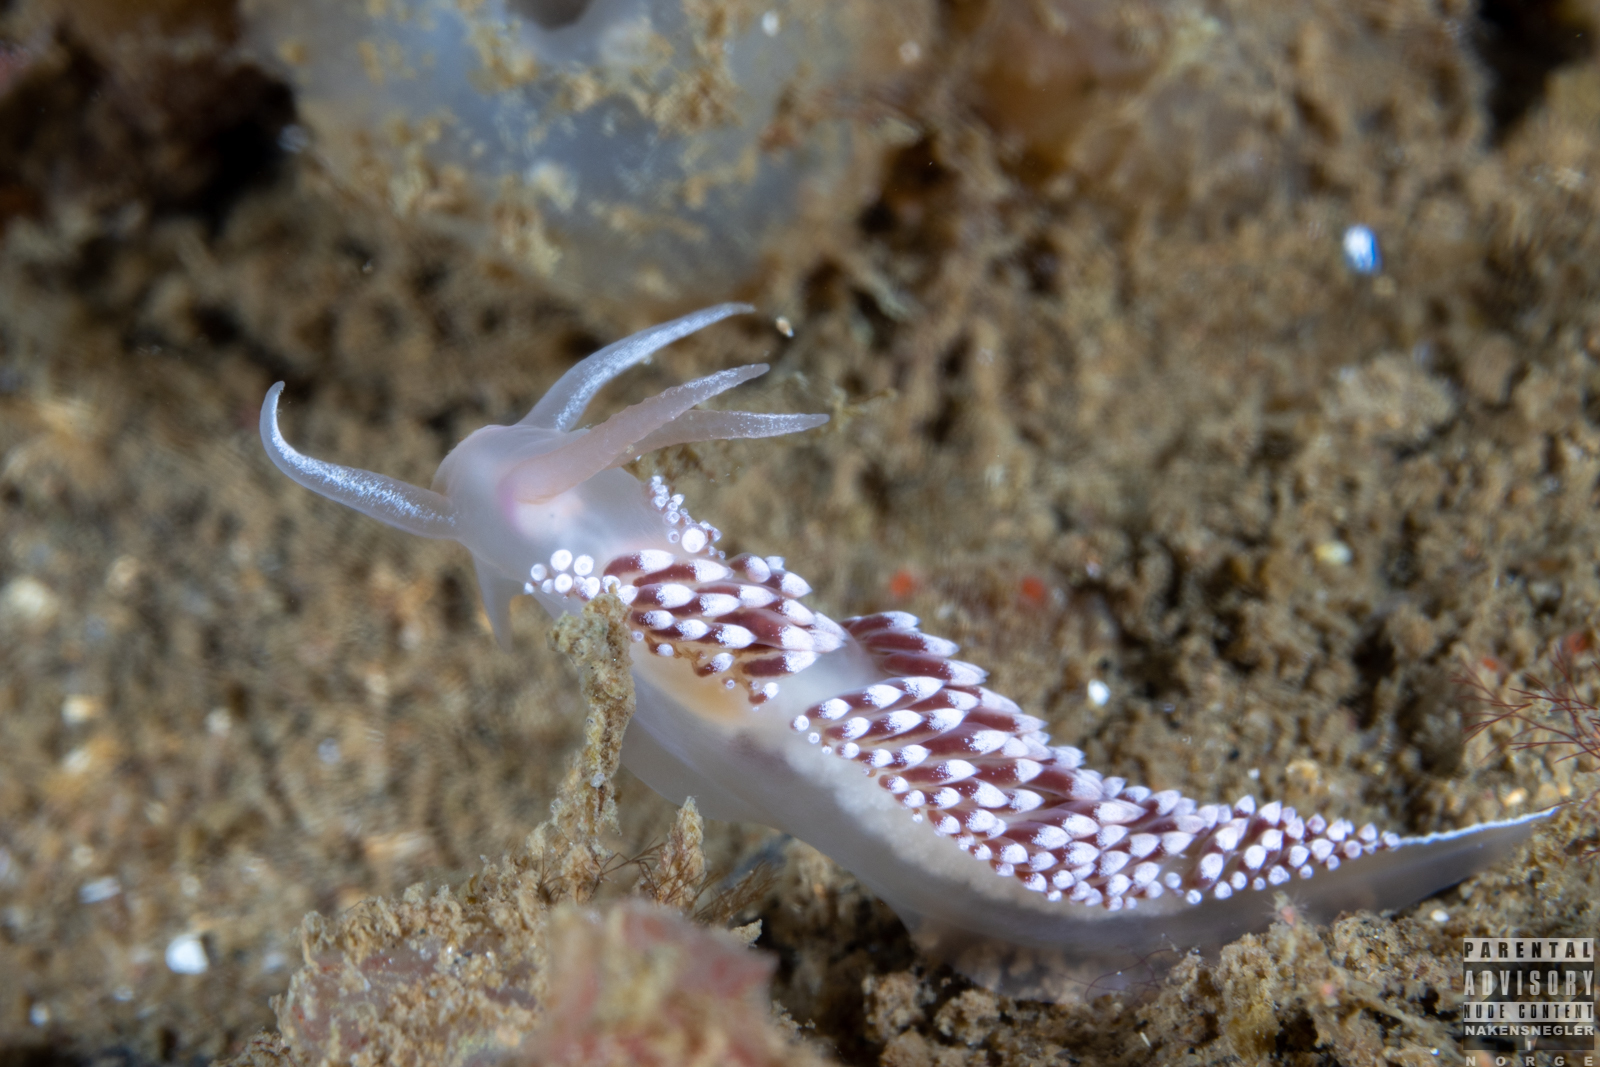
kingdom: Animalia
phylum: Mollusca
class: Gastropoda
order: Nudibranchia
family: Coryphellidae
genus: Coryphella
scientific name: Coryphella verrucosa
